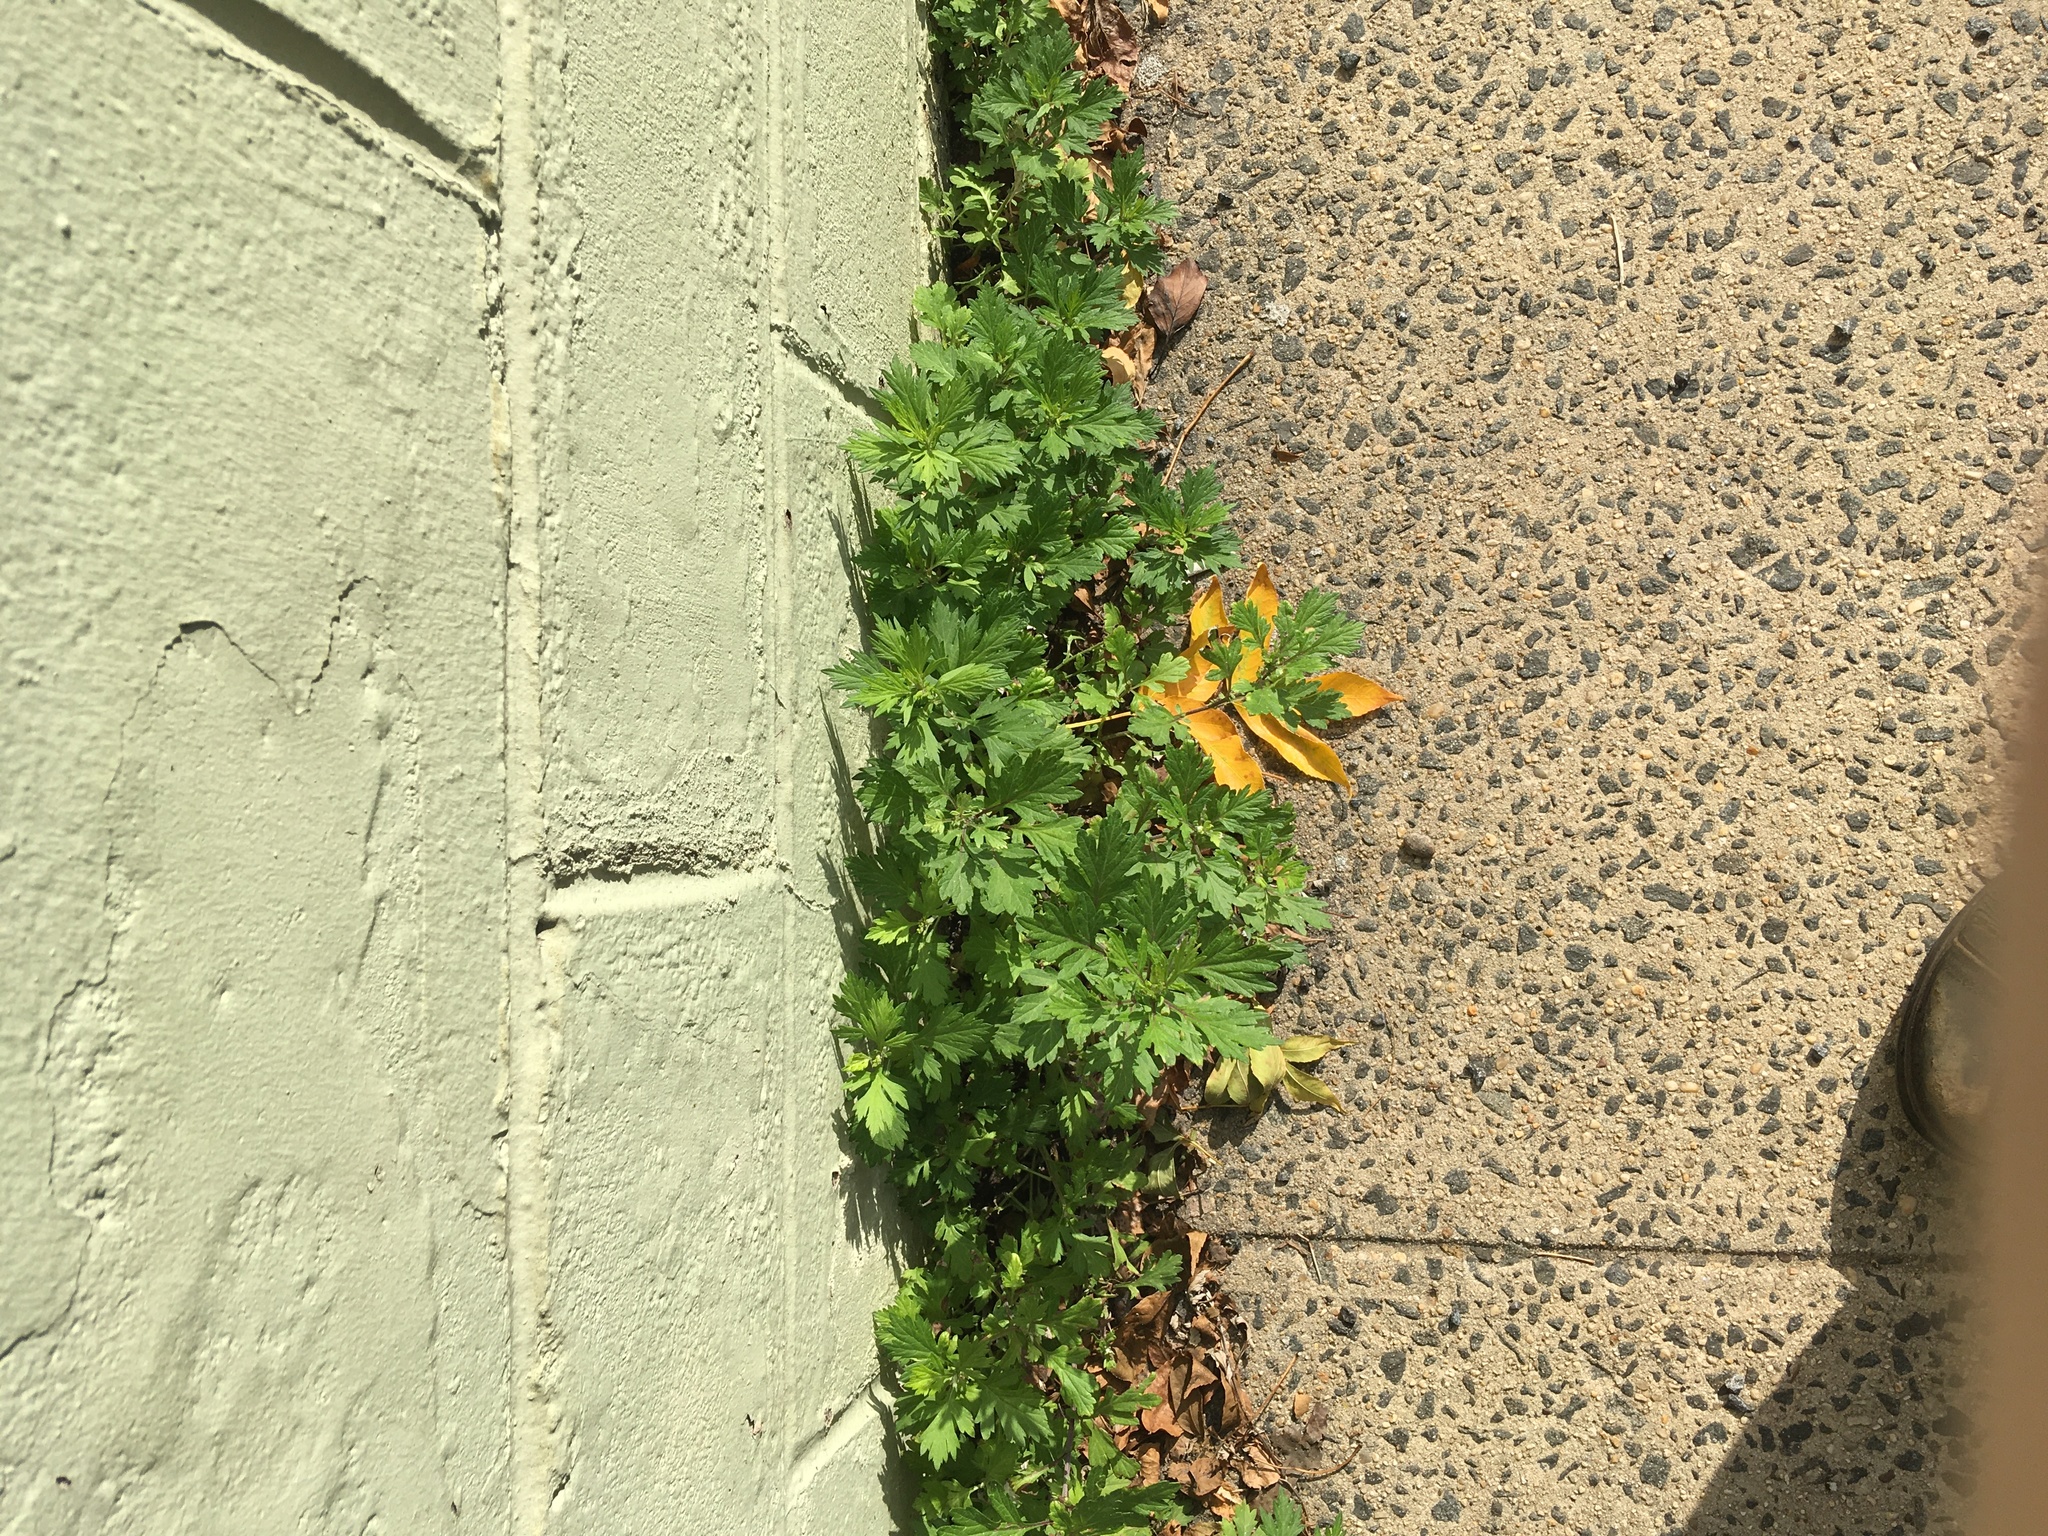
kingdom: Plantae
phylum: Tracheophyta
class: Magnoliopsida
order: Asterales
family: Asteraceae
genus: Artemisia
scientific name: Artemisia vulgaris
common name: Mugwort
